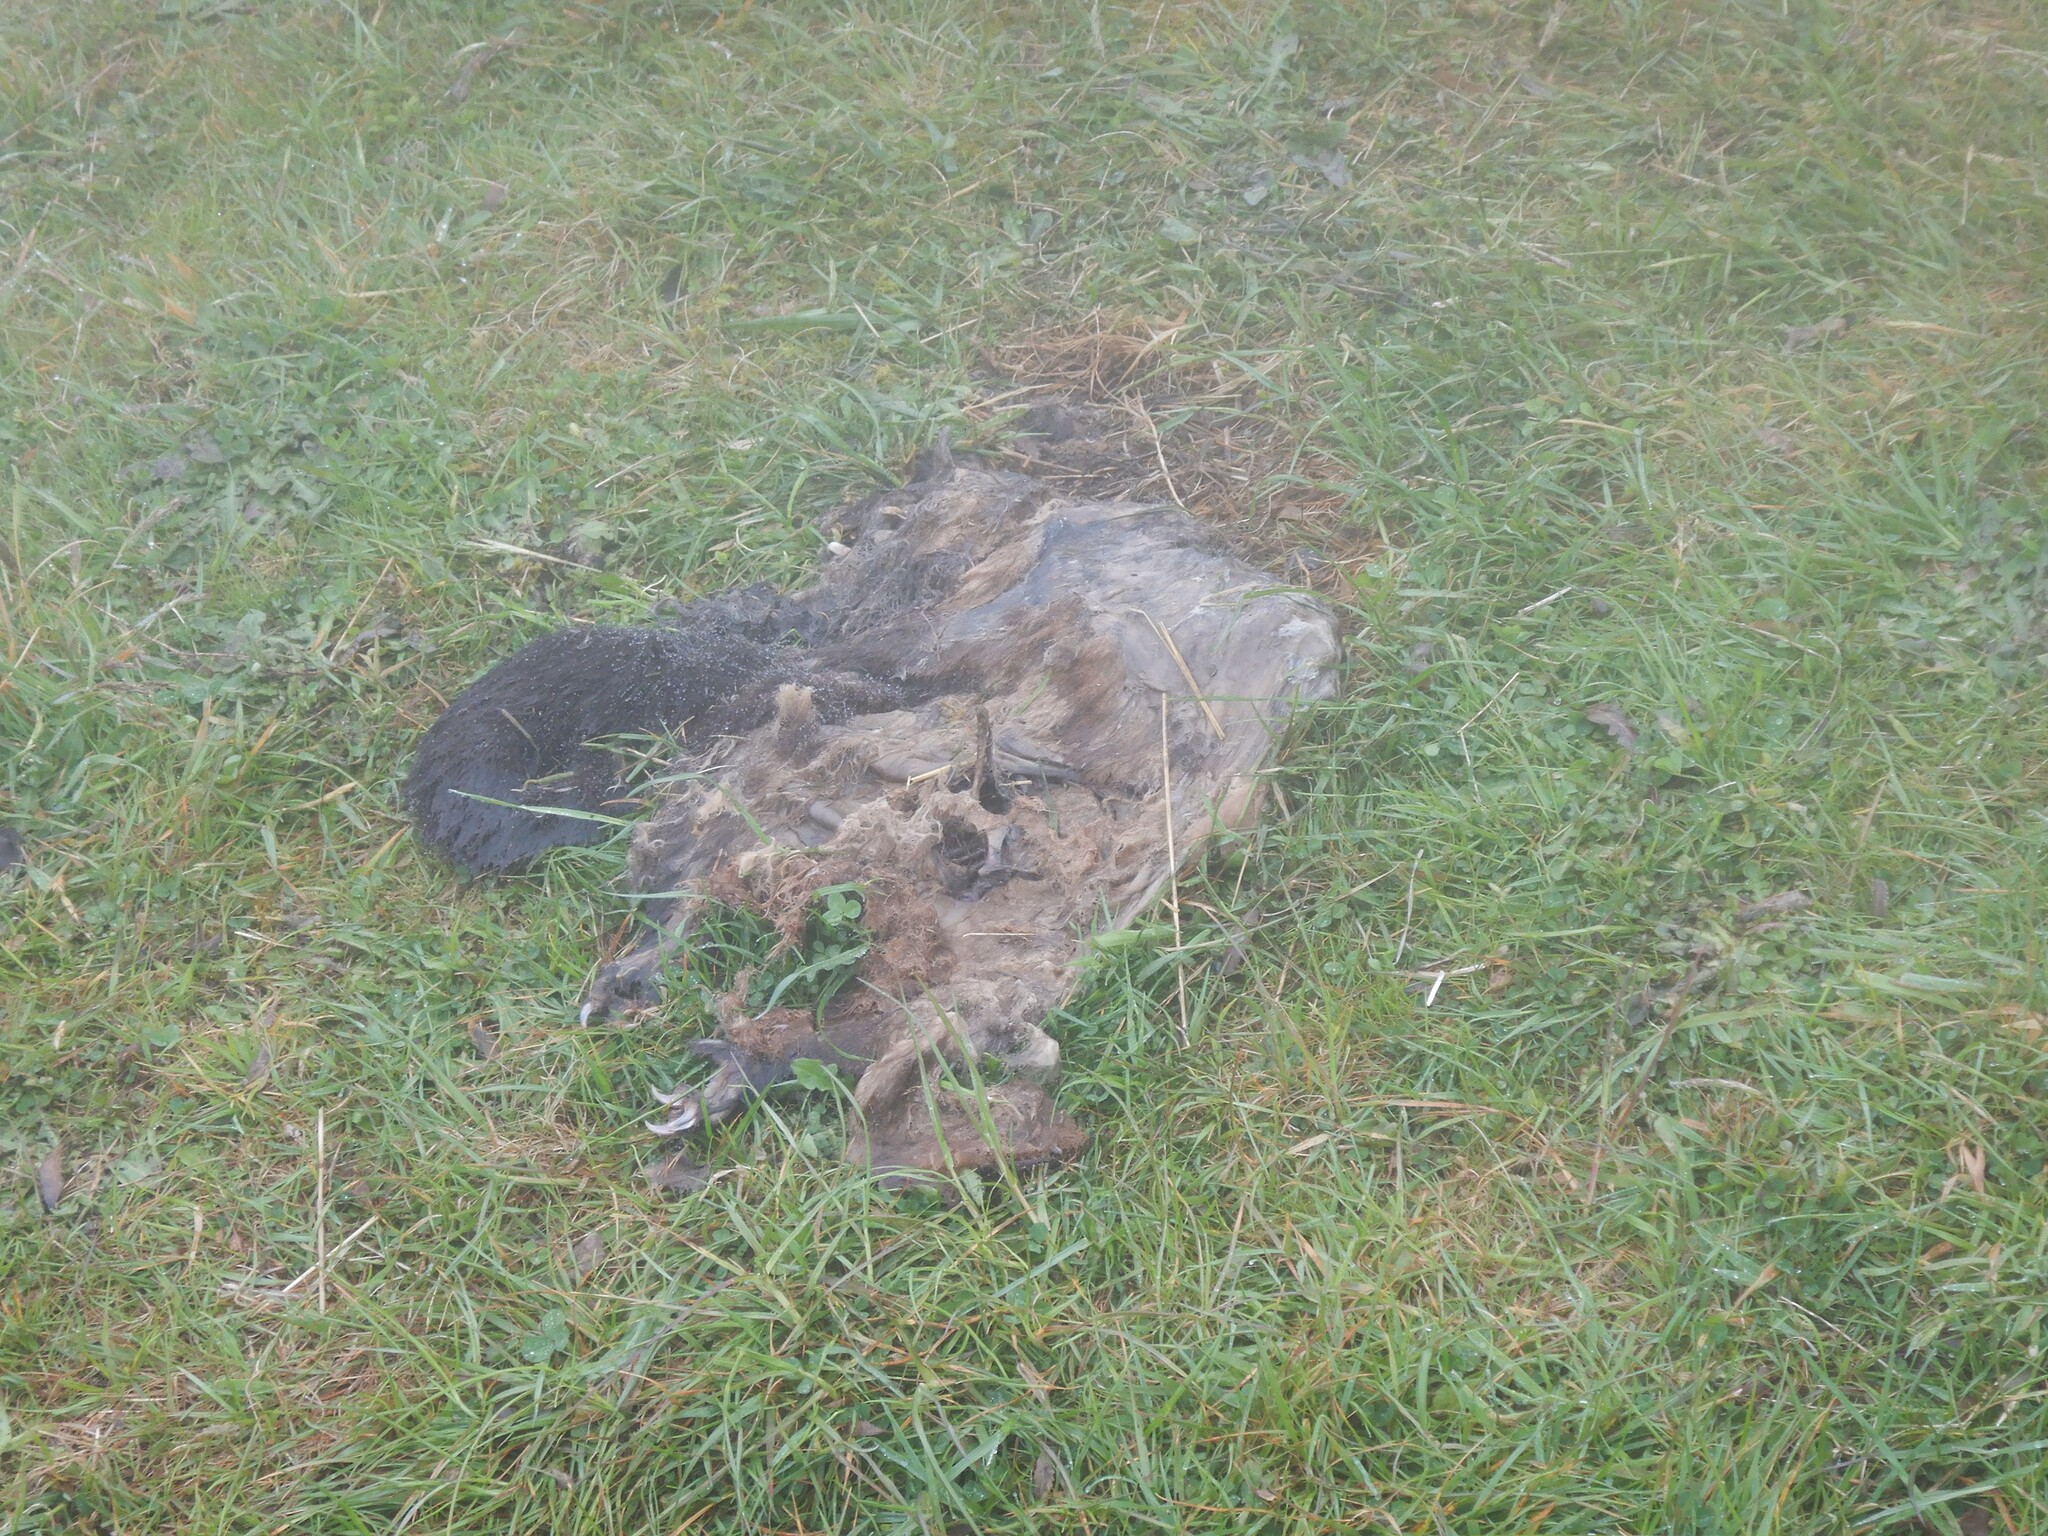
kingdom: Animalia
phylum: Chordata
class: Mammalia
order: Diprotodontia
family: Phalangeridae
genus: Trichosurus
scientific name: Trichosurus vulpecula
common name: Common brushtail
